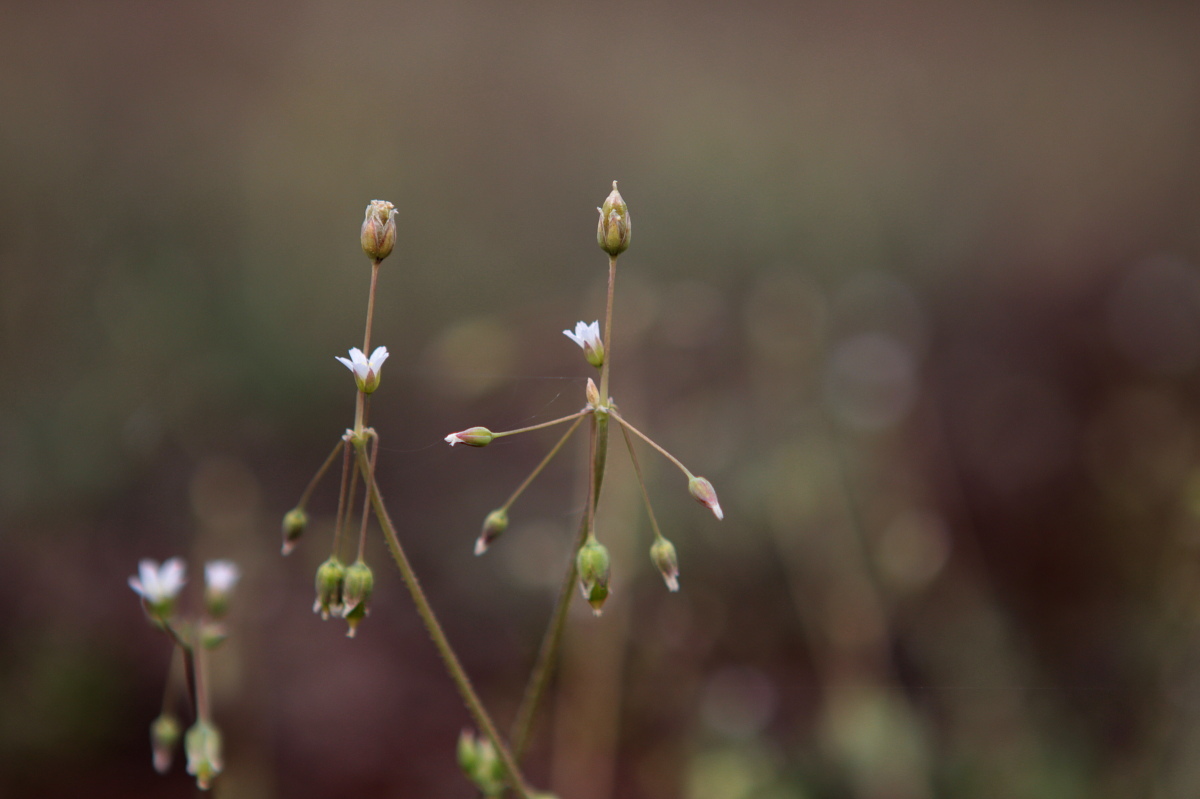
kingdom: Plantae
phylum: Tracheophyta
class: Magnoliopsida
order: Caryophyllales
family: Caryophyllaceae
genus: Holosteum
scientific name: Holosteum umbellatum
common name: Jagged chickweed
